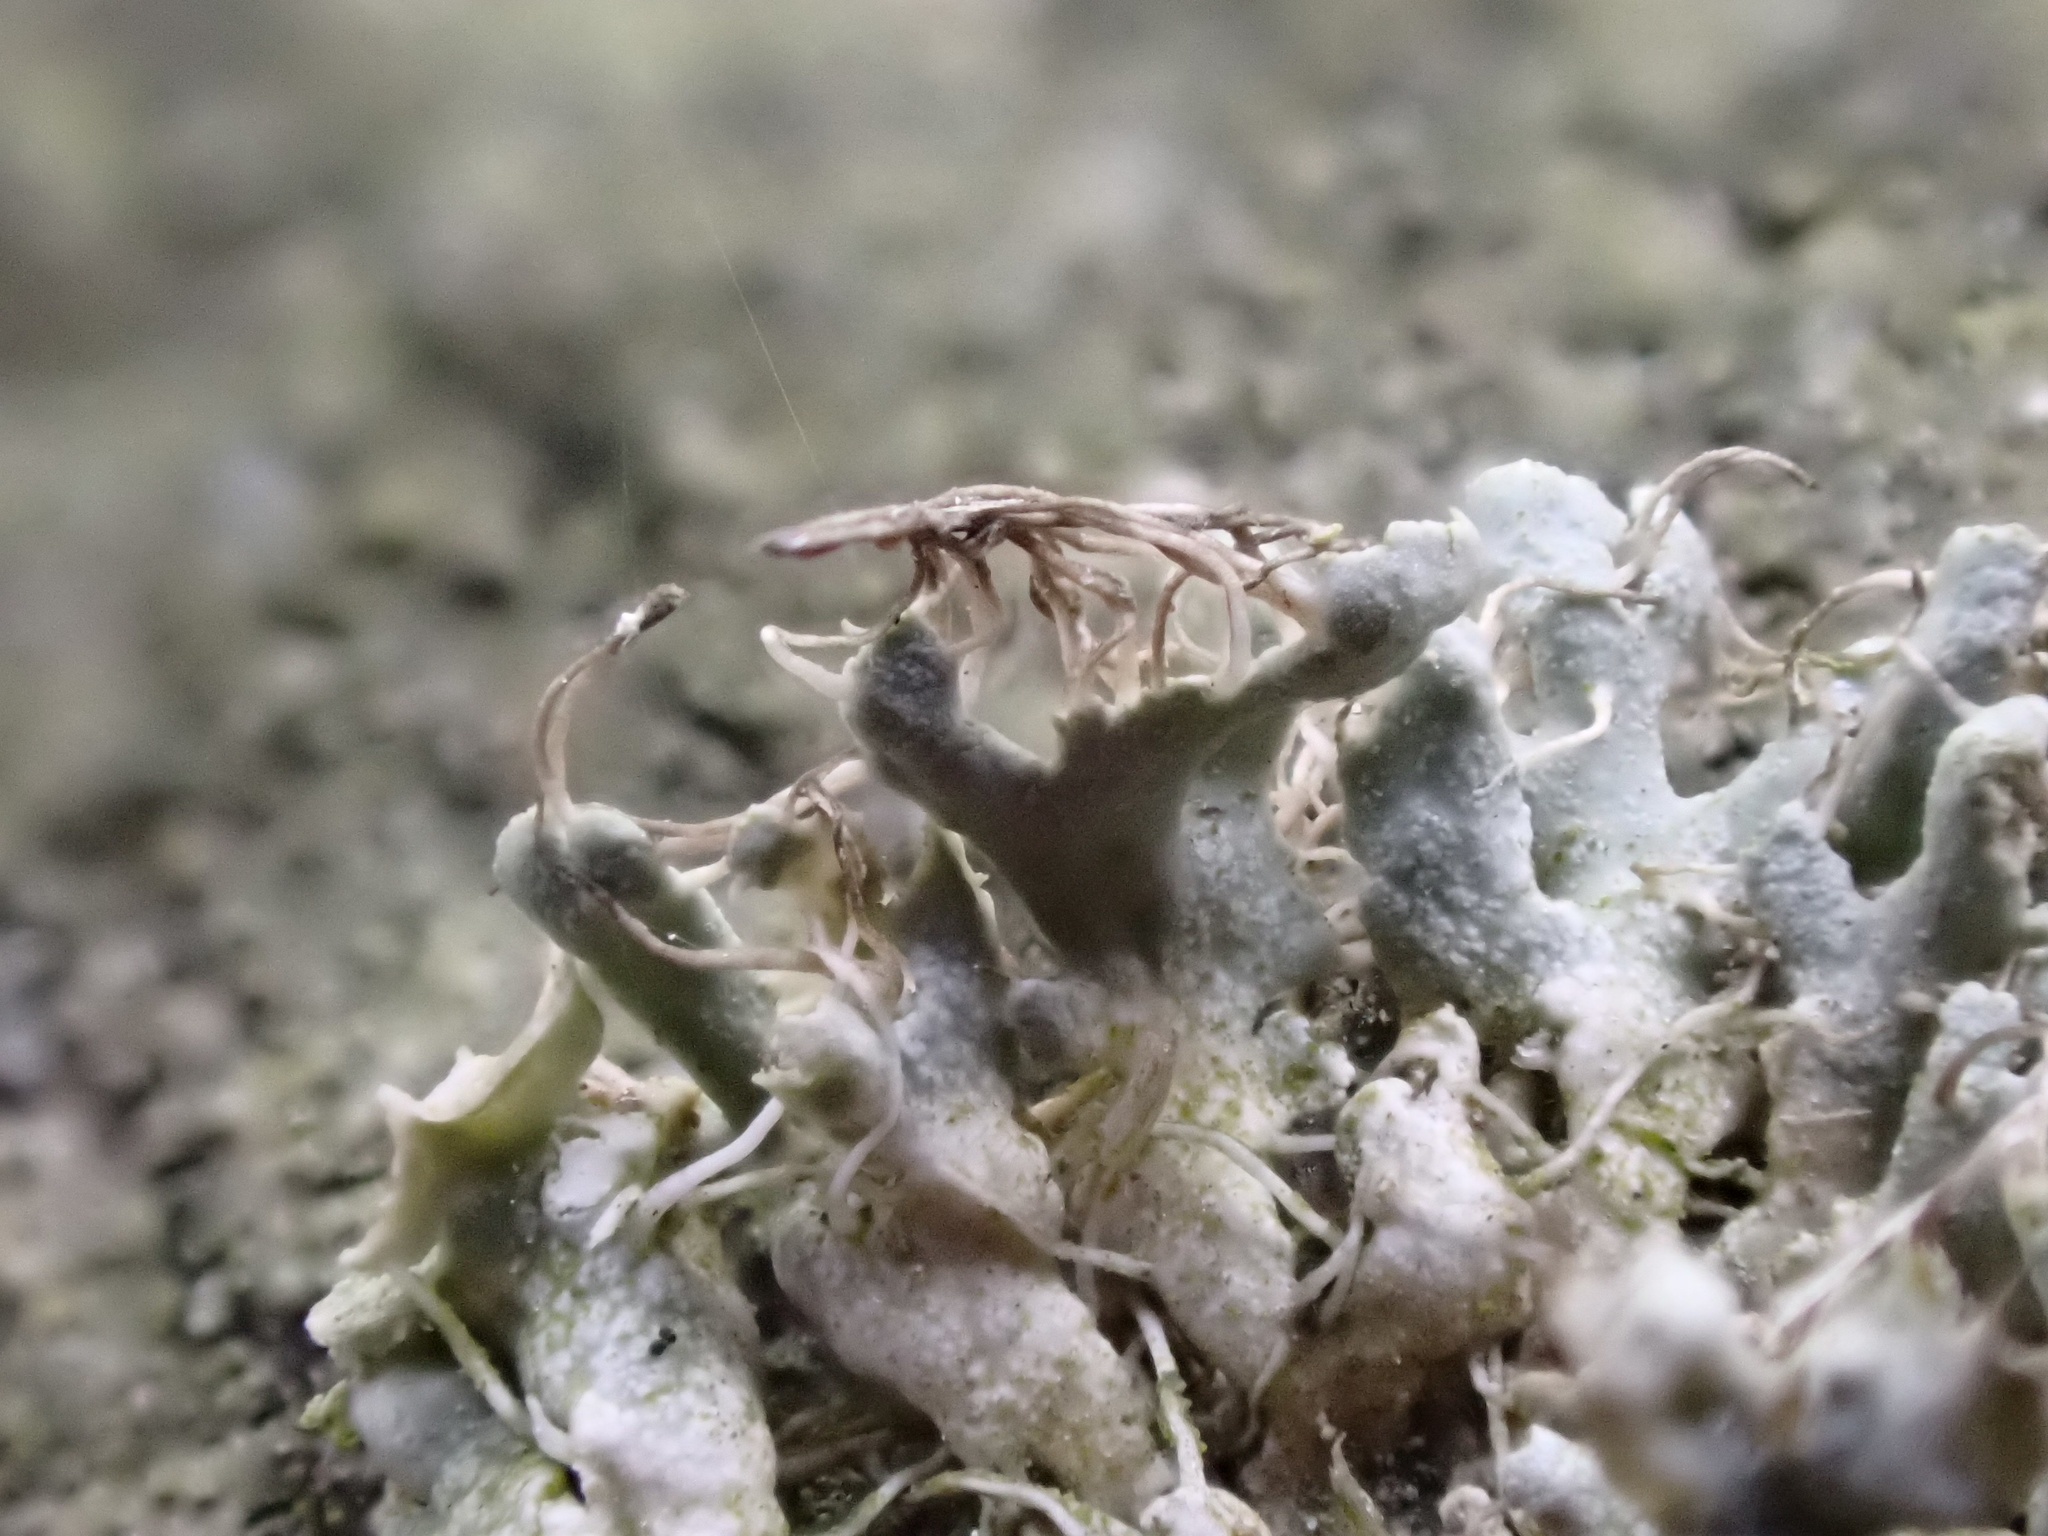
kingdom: Fungi
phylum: Ascomycota
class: Lecanoromycetes
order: Caliciales
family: Physciaceae
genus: Physcia
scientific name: Physcia adscendens
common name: Hooded rosette lichen
